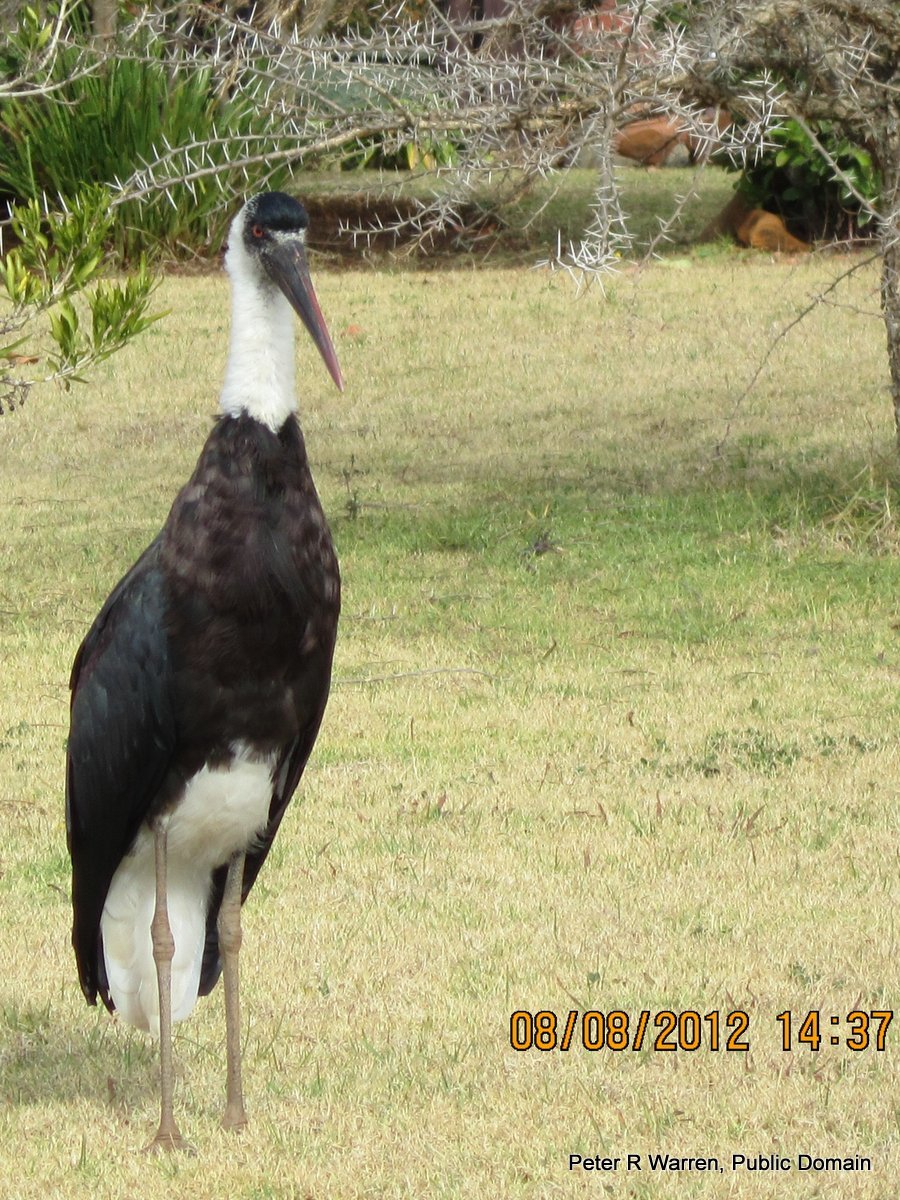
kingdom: Animalia
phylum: Chordata
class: Aves
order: Ciconiiformes
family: Ciconiidae
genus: Ciconia
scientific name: Ciconia microscelis
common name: African woollyneck
